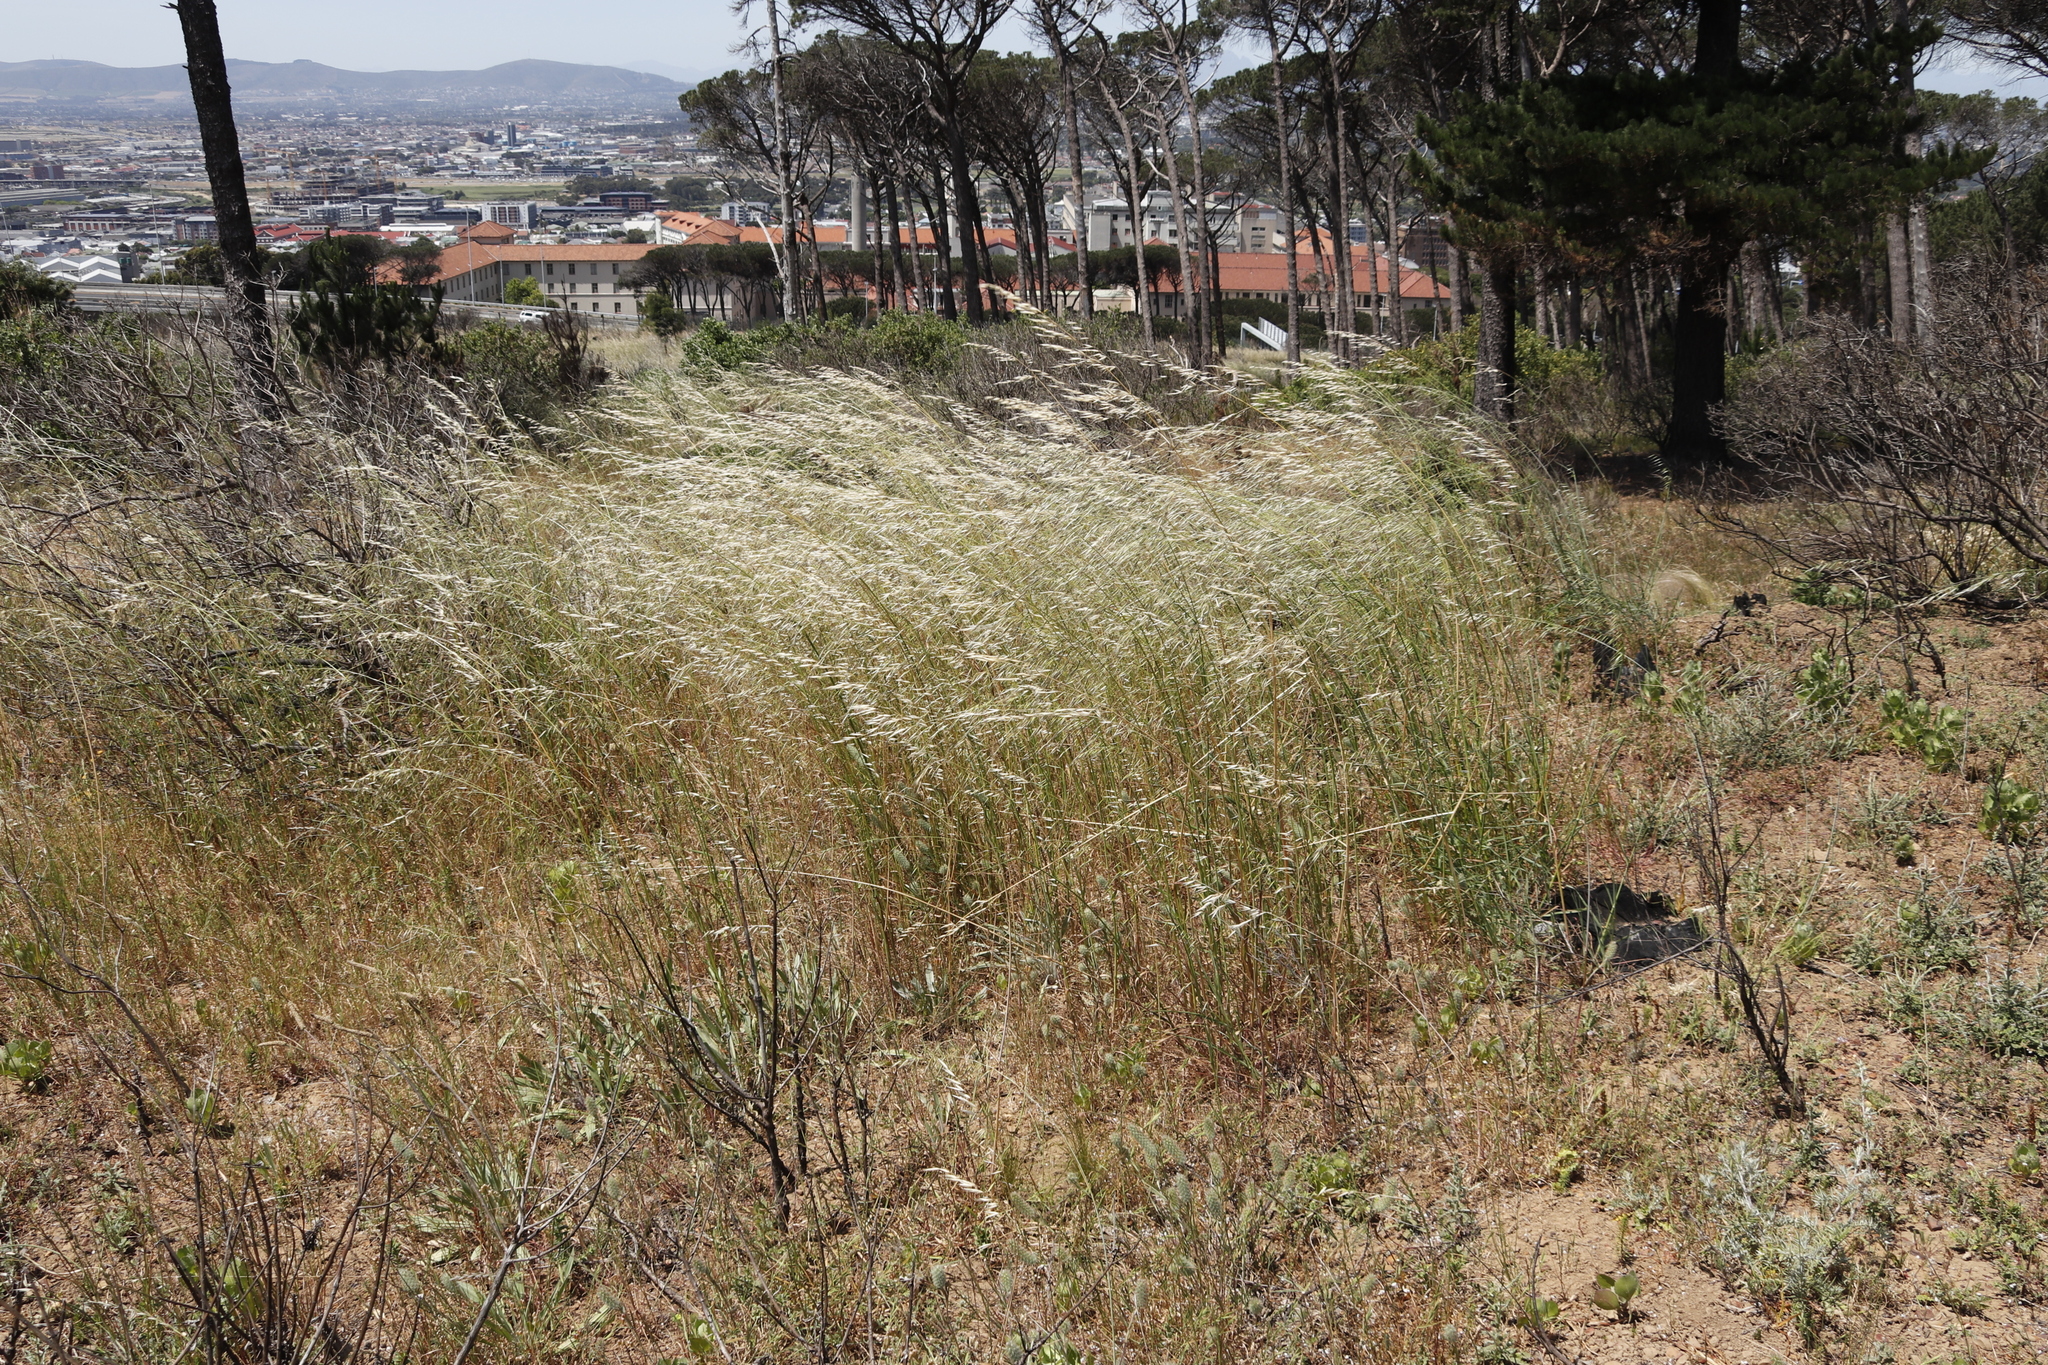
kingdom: Plantae
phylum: Tracheophyta
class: Liliopsida
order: Poales
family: Poaceae
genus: Avena
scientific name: Avena fatua
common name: Wild oat
